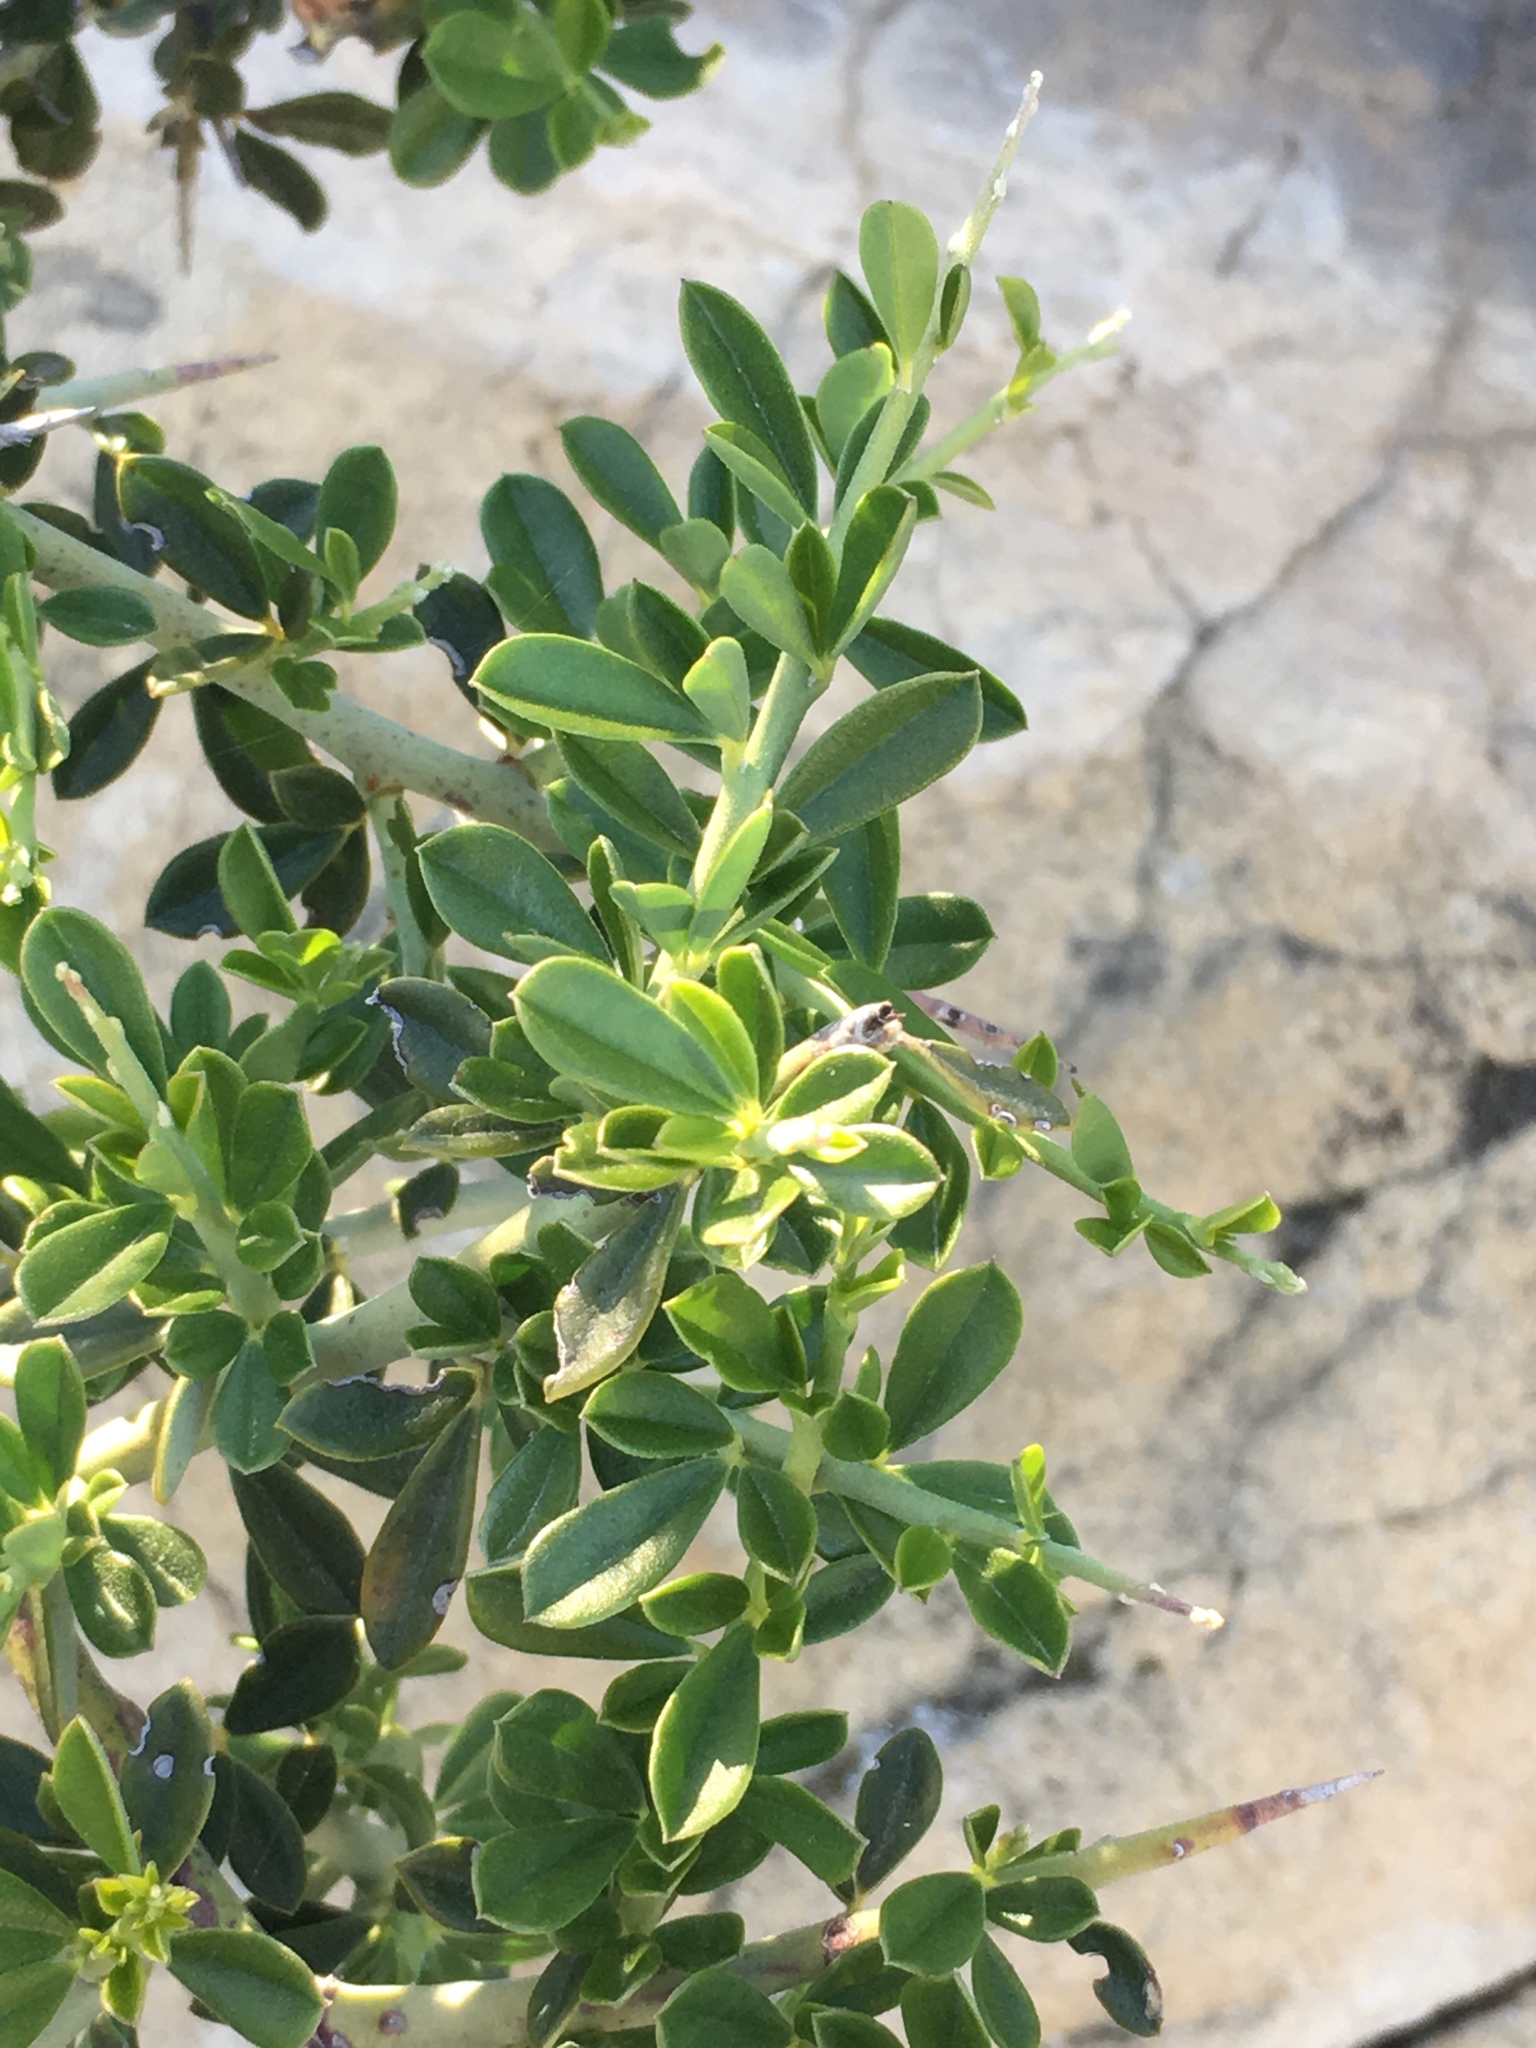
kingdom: Plantae
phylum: Tracheophyta
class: Magnoliopsida
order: Fabales
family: Fabaceae
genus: Pickeringia
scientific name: Pickeringia montana
